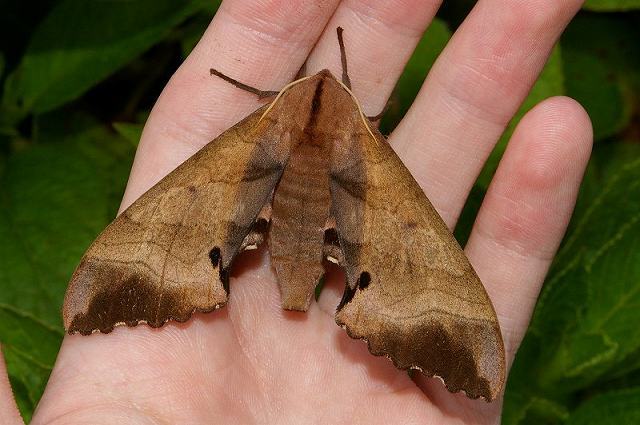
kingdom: Animalia
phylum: Arthropoda
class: Insecta
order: Lepidoptera
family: Sphingidae
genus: Marumba
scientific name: Marumba echephron
